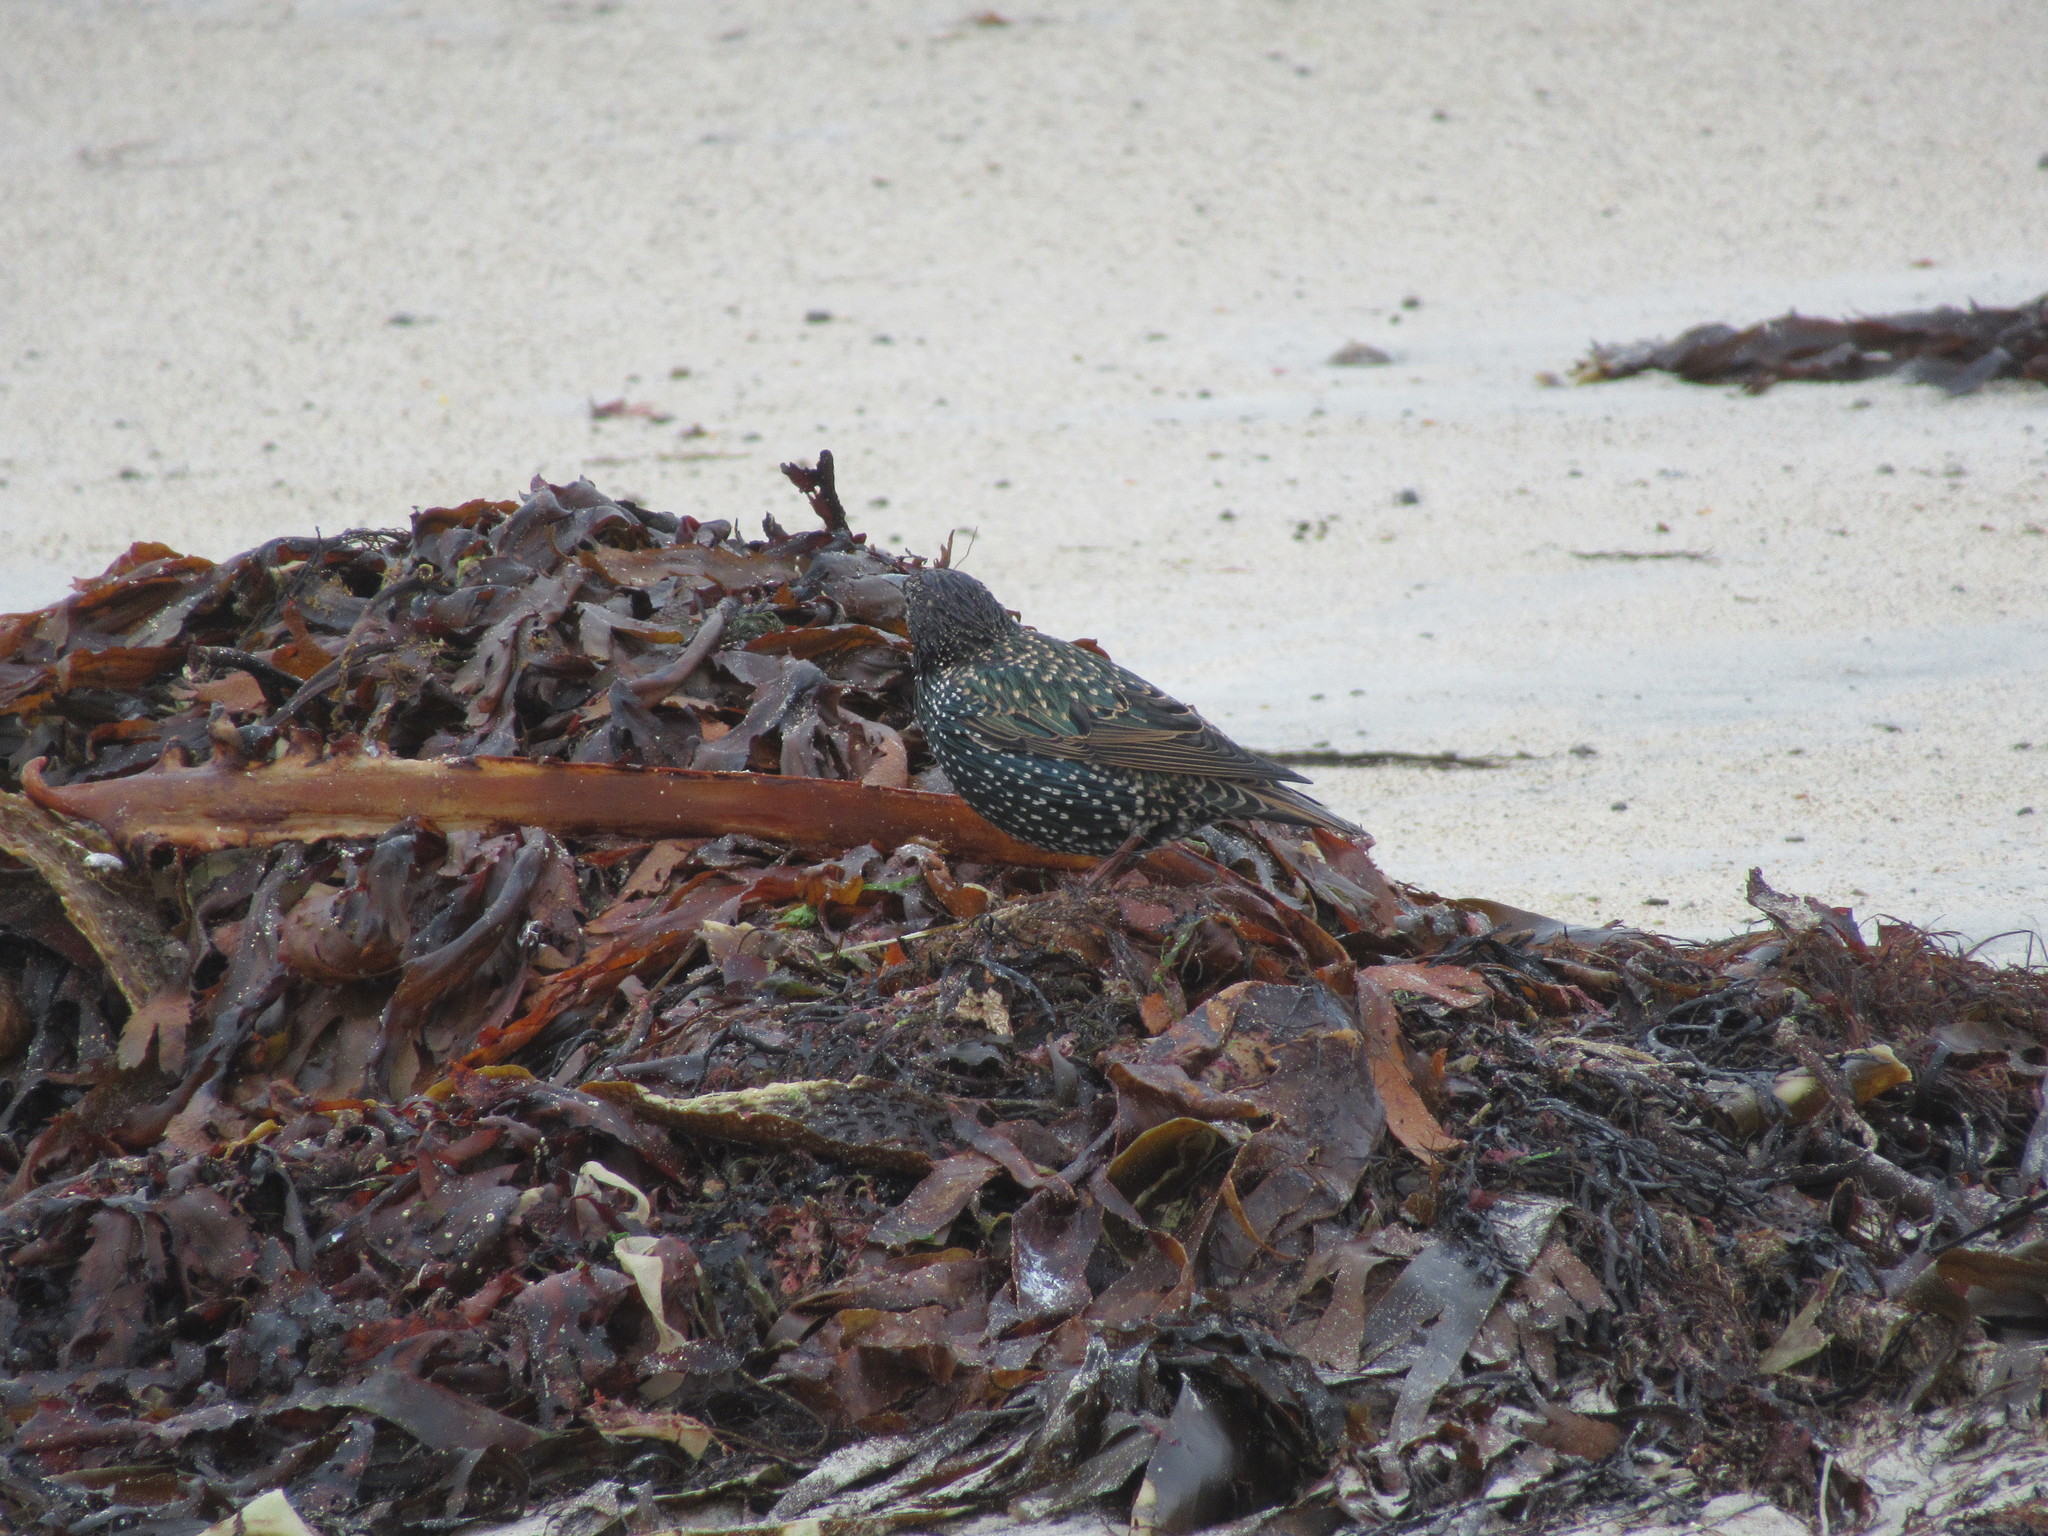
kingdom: Animalia
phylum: Chordata
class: Aves
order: Passeriformes
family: Sturnidae
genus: Sturnus
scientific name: Sturnus vulgaris
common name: Common starling
